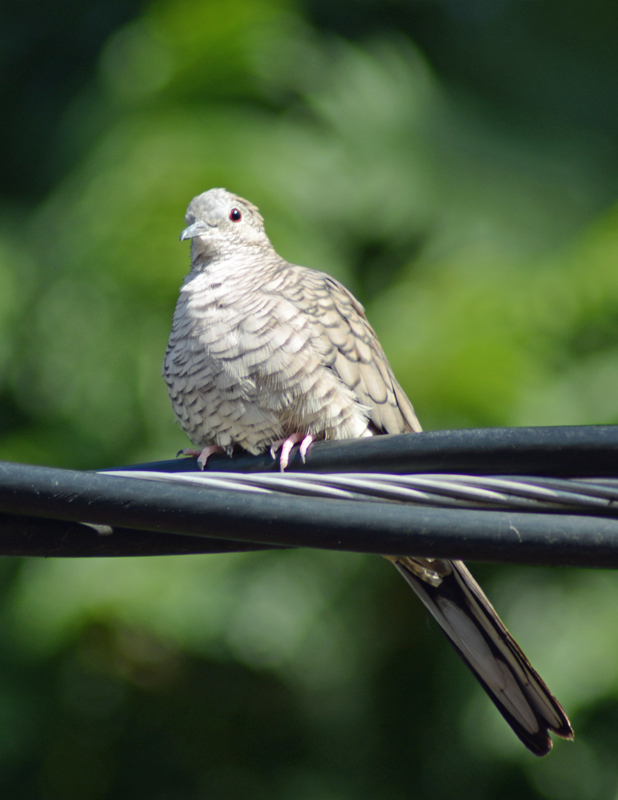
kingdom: Animalia
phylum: Chordata
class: Aves
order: Columbiformes
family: Columbidae
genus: Columbina
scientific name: Columbina inca
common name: Inca dove
